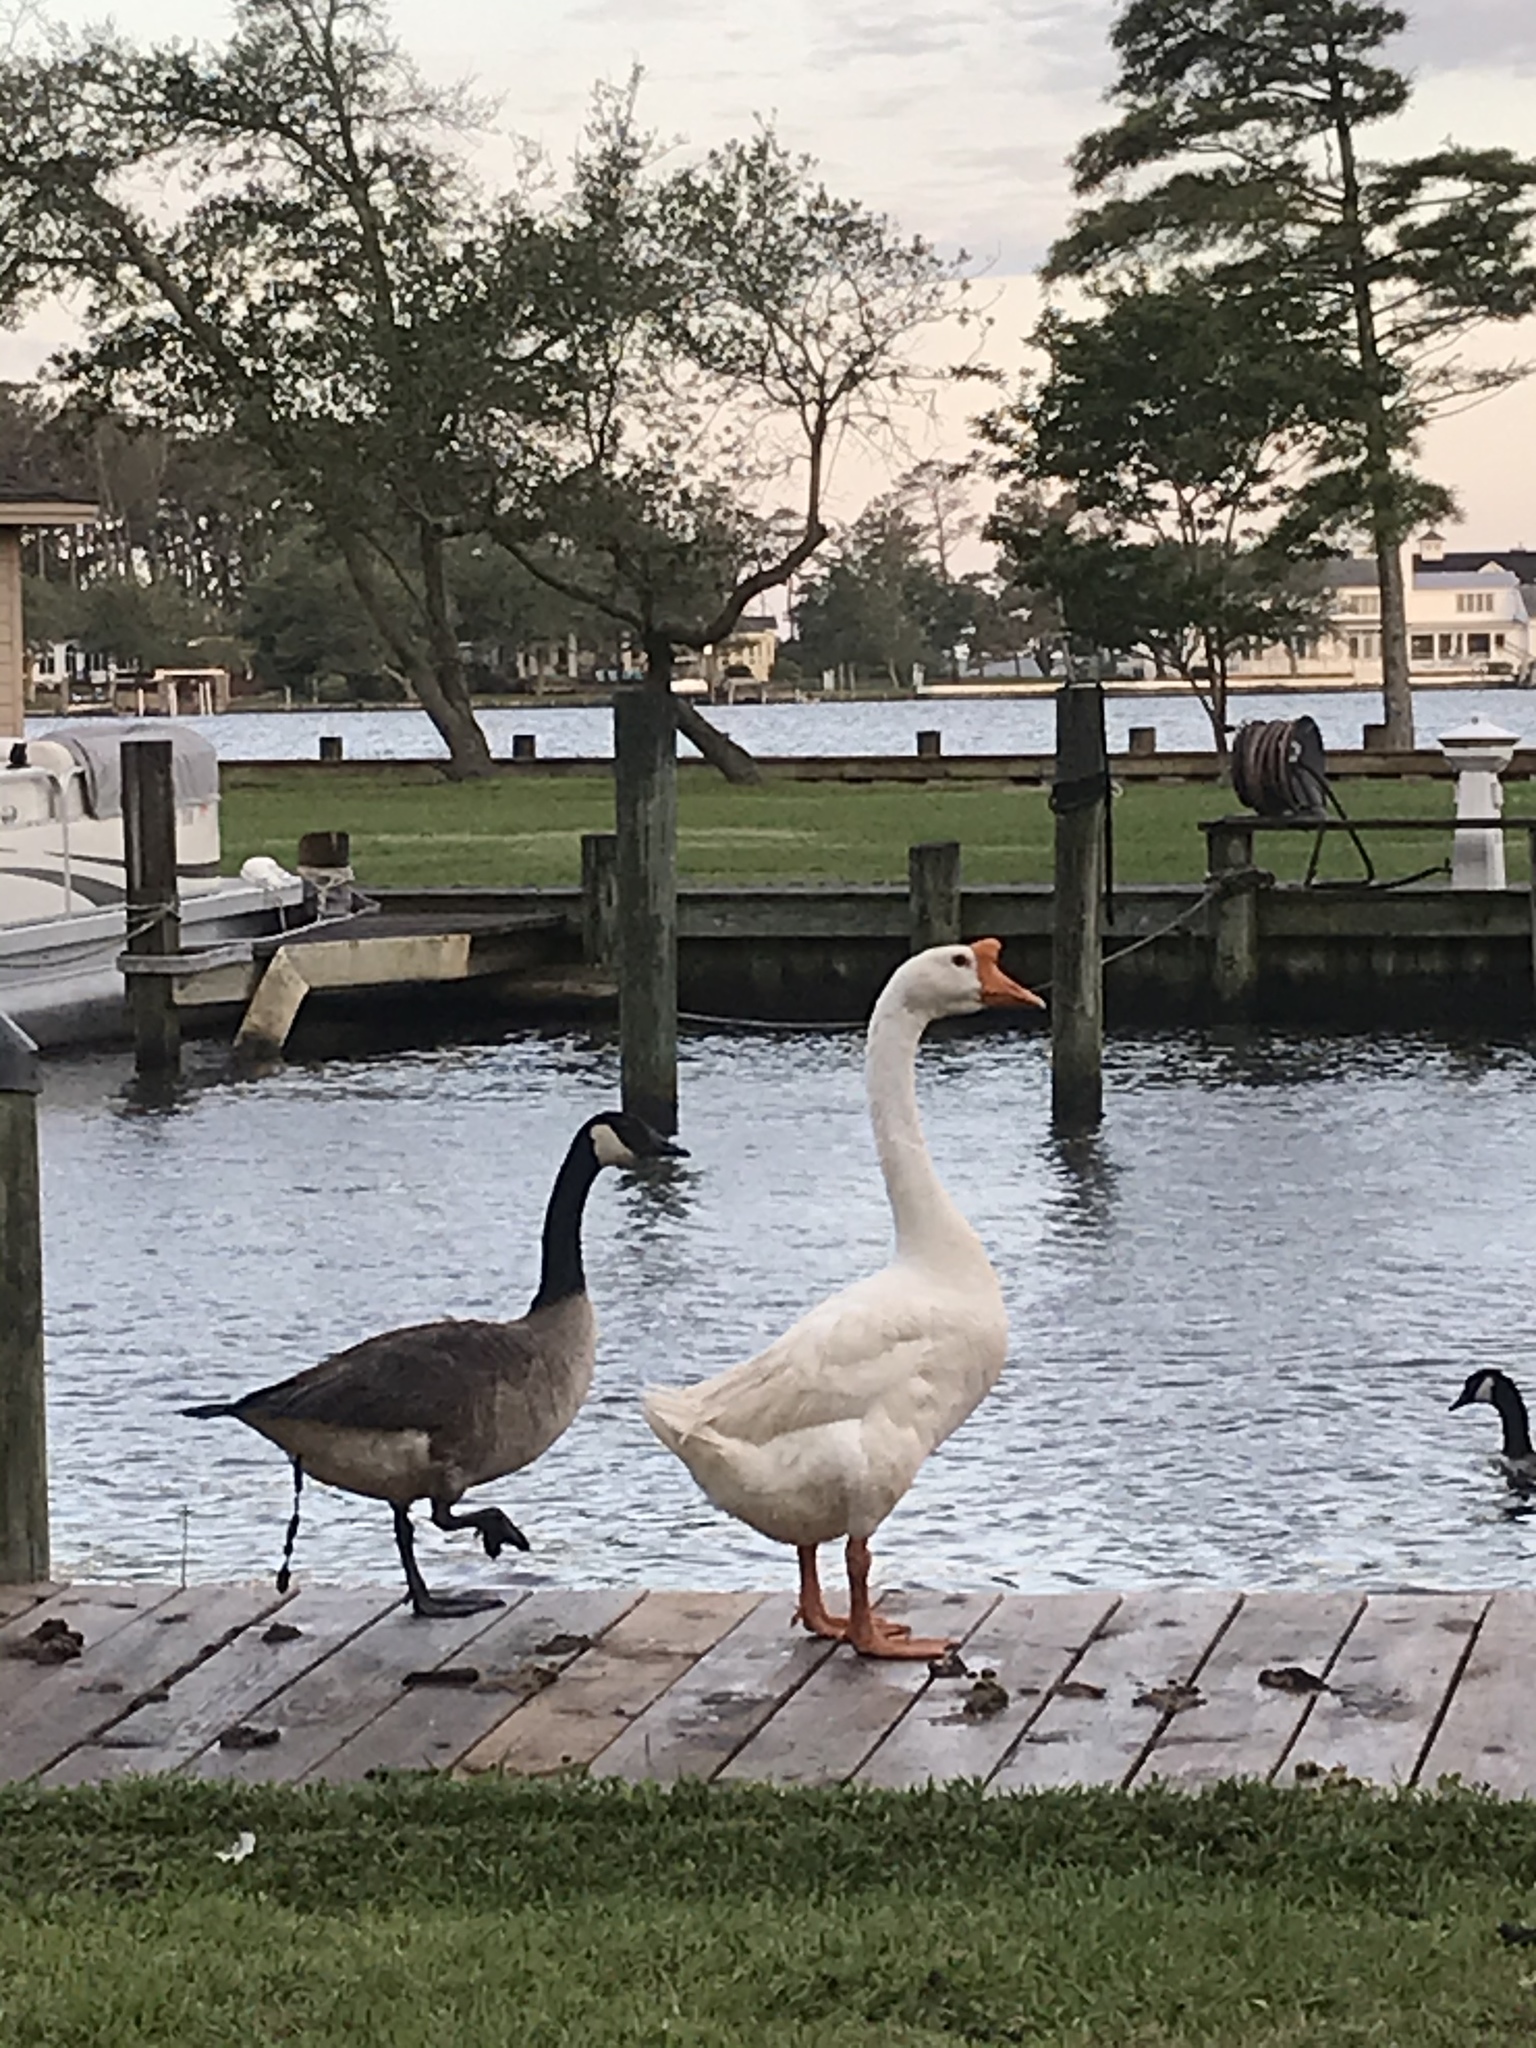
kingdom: Animalia
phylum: Chordata
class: Aves
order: Anseriformes
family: Anatidae
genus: Anser
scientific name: Anser cygnoides
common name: Swan goose
